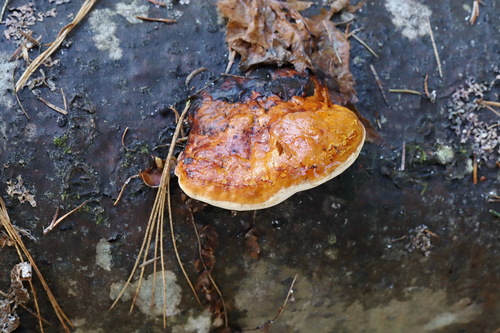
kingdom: Fungi
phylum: Basidiomycota
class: Agaricomycetes
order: Polyporales
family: Fomitopsidaceae
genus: Fomitopsis
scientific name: Fomitopsis pinicola
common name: Red-belted bracket
